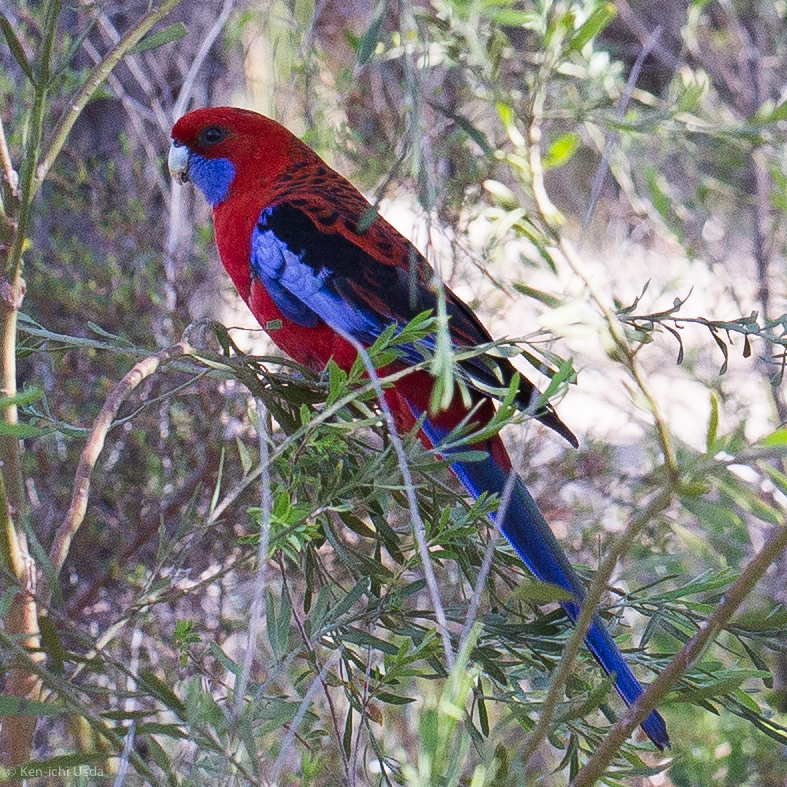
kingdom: Animalia
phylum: Chordata
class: Aves
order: Psittaciformes
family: Psittacidae
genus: Platycercus
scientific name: Platycercus elegans
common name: Crimson rosella
